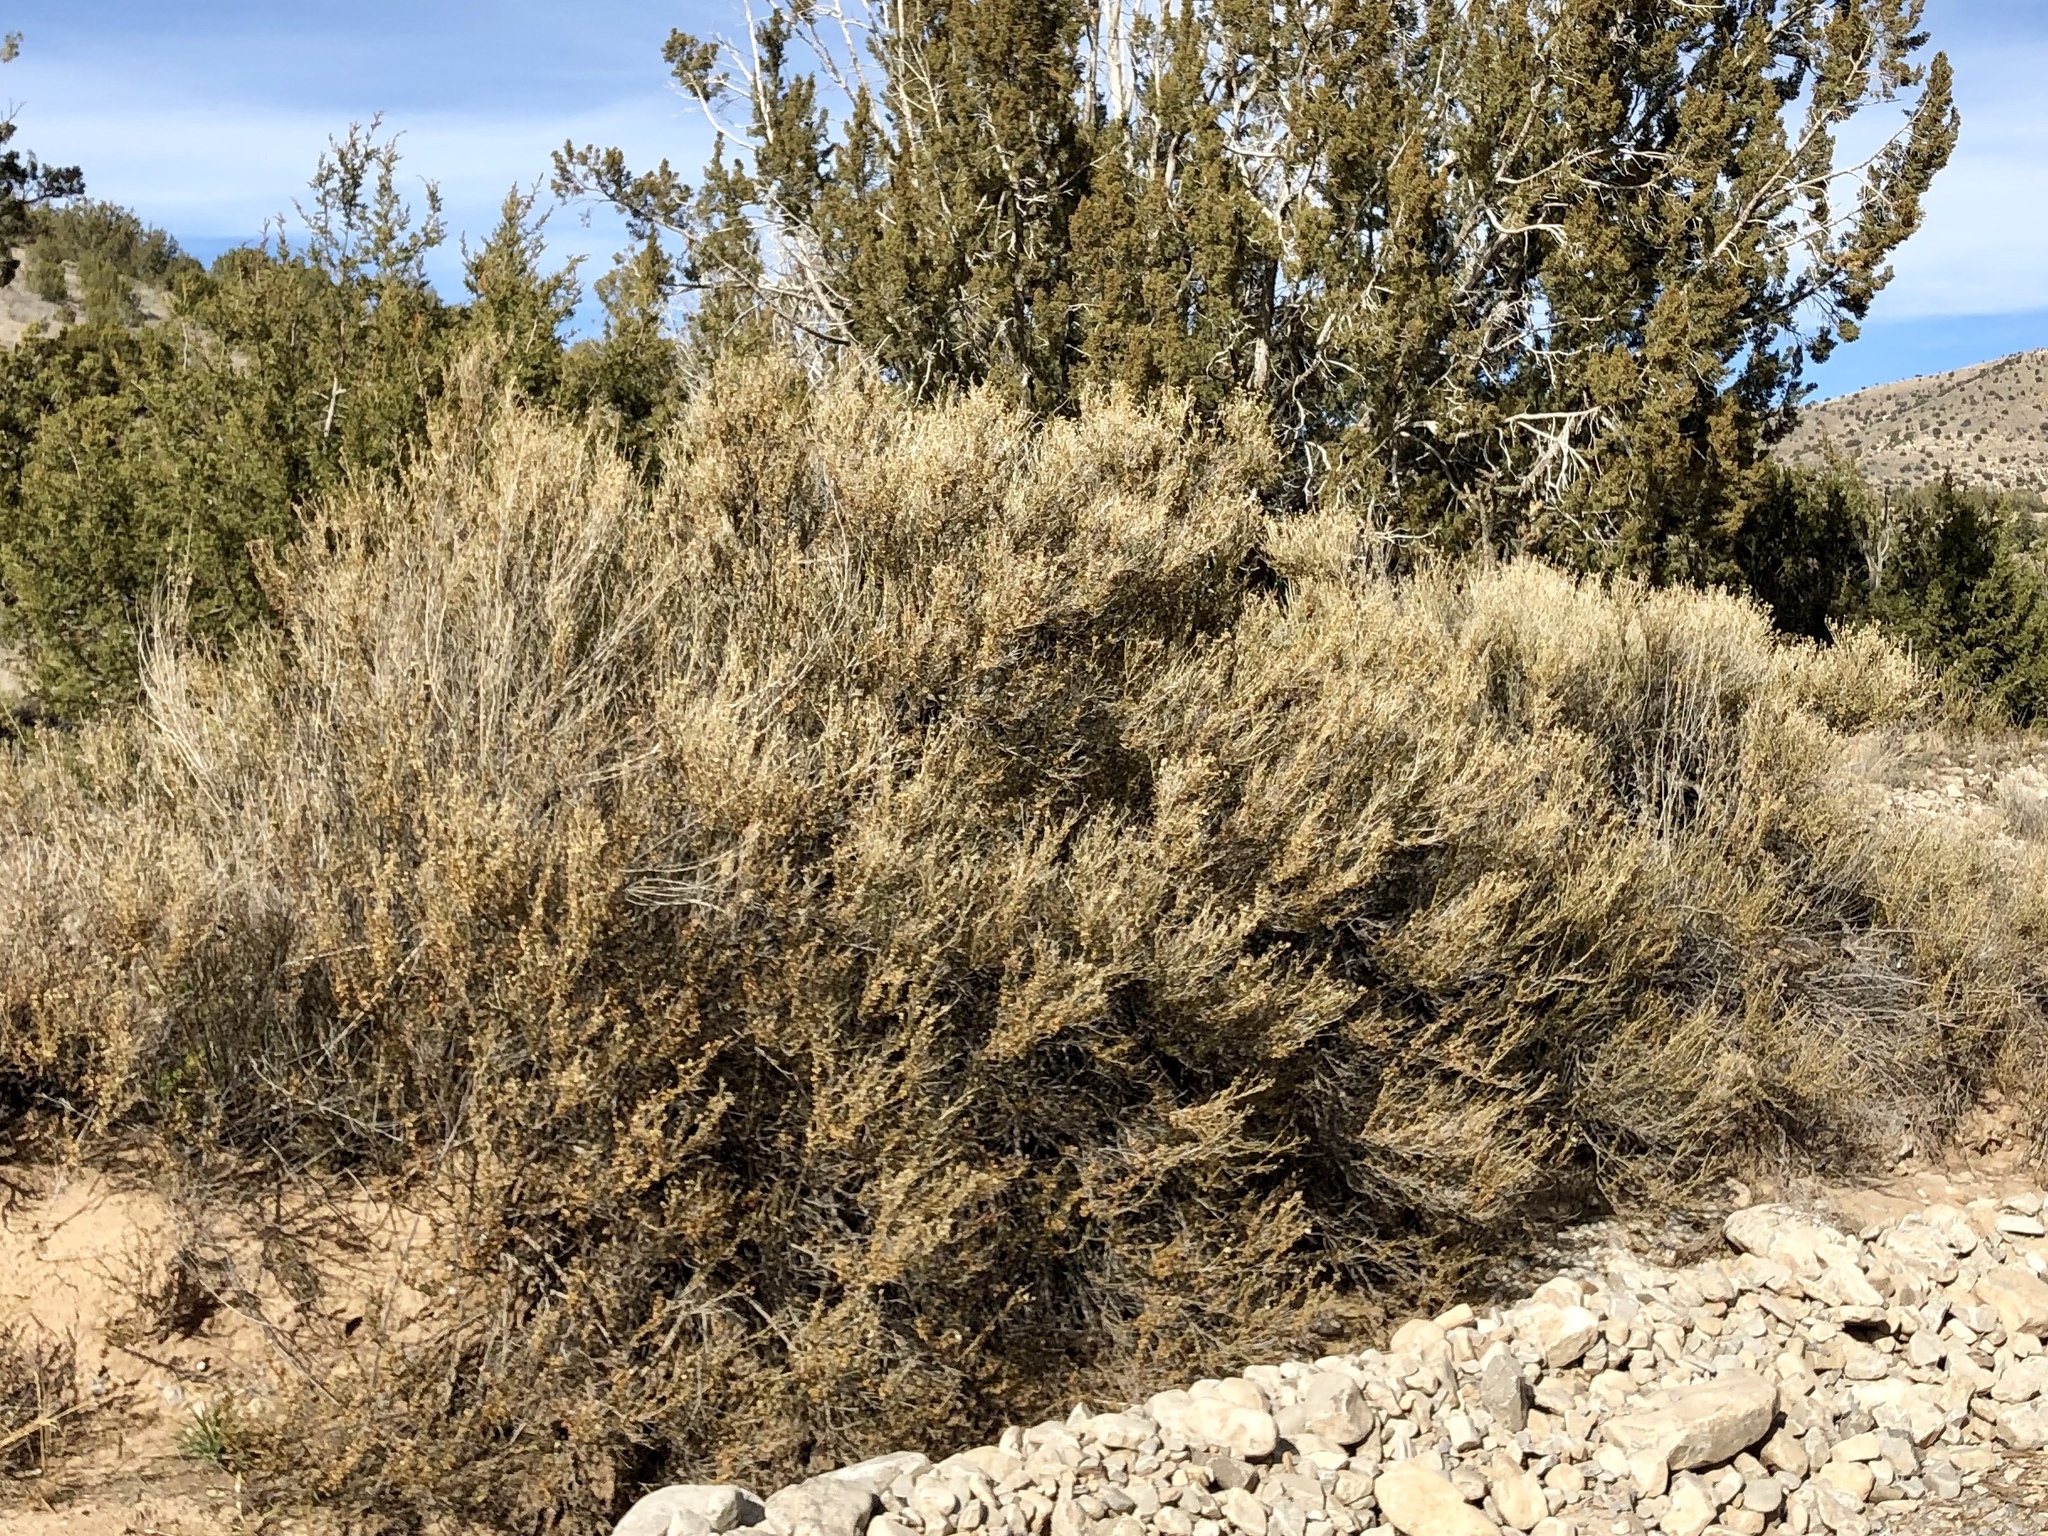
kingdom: Plantae
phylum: Tracheophyta
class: Magnoliopsida
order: Rosales
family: Rosaceae
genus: Fallugia
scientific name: Fallugia paradoxa
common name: Apache-plume
